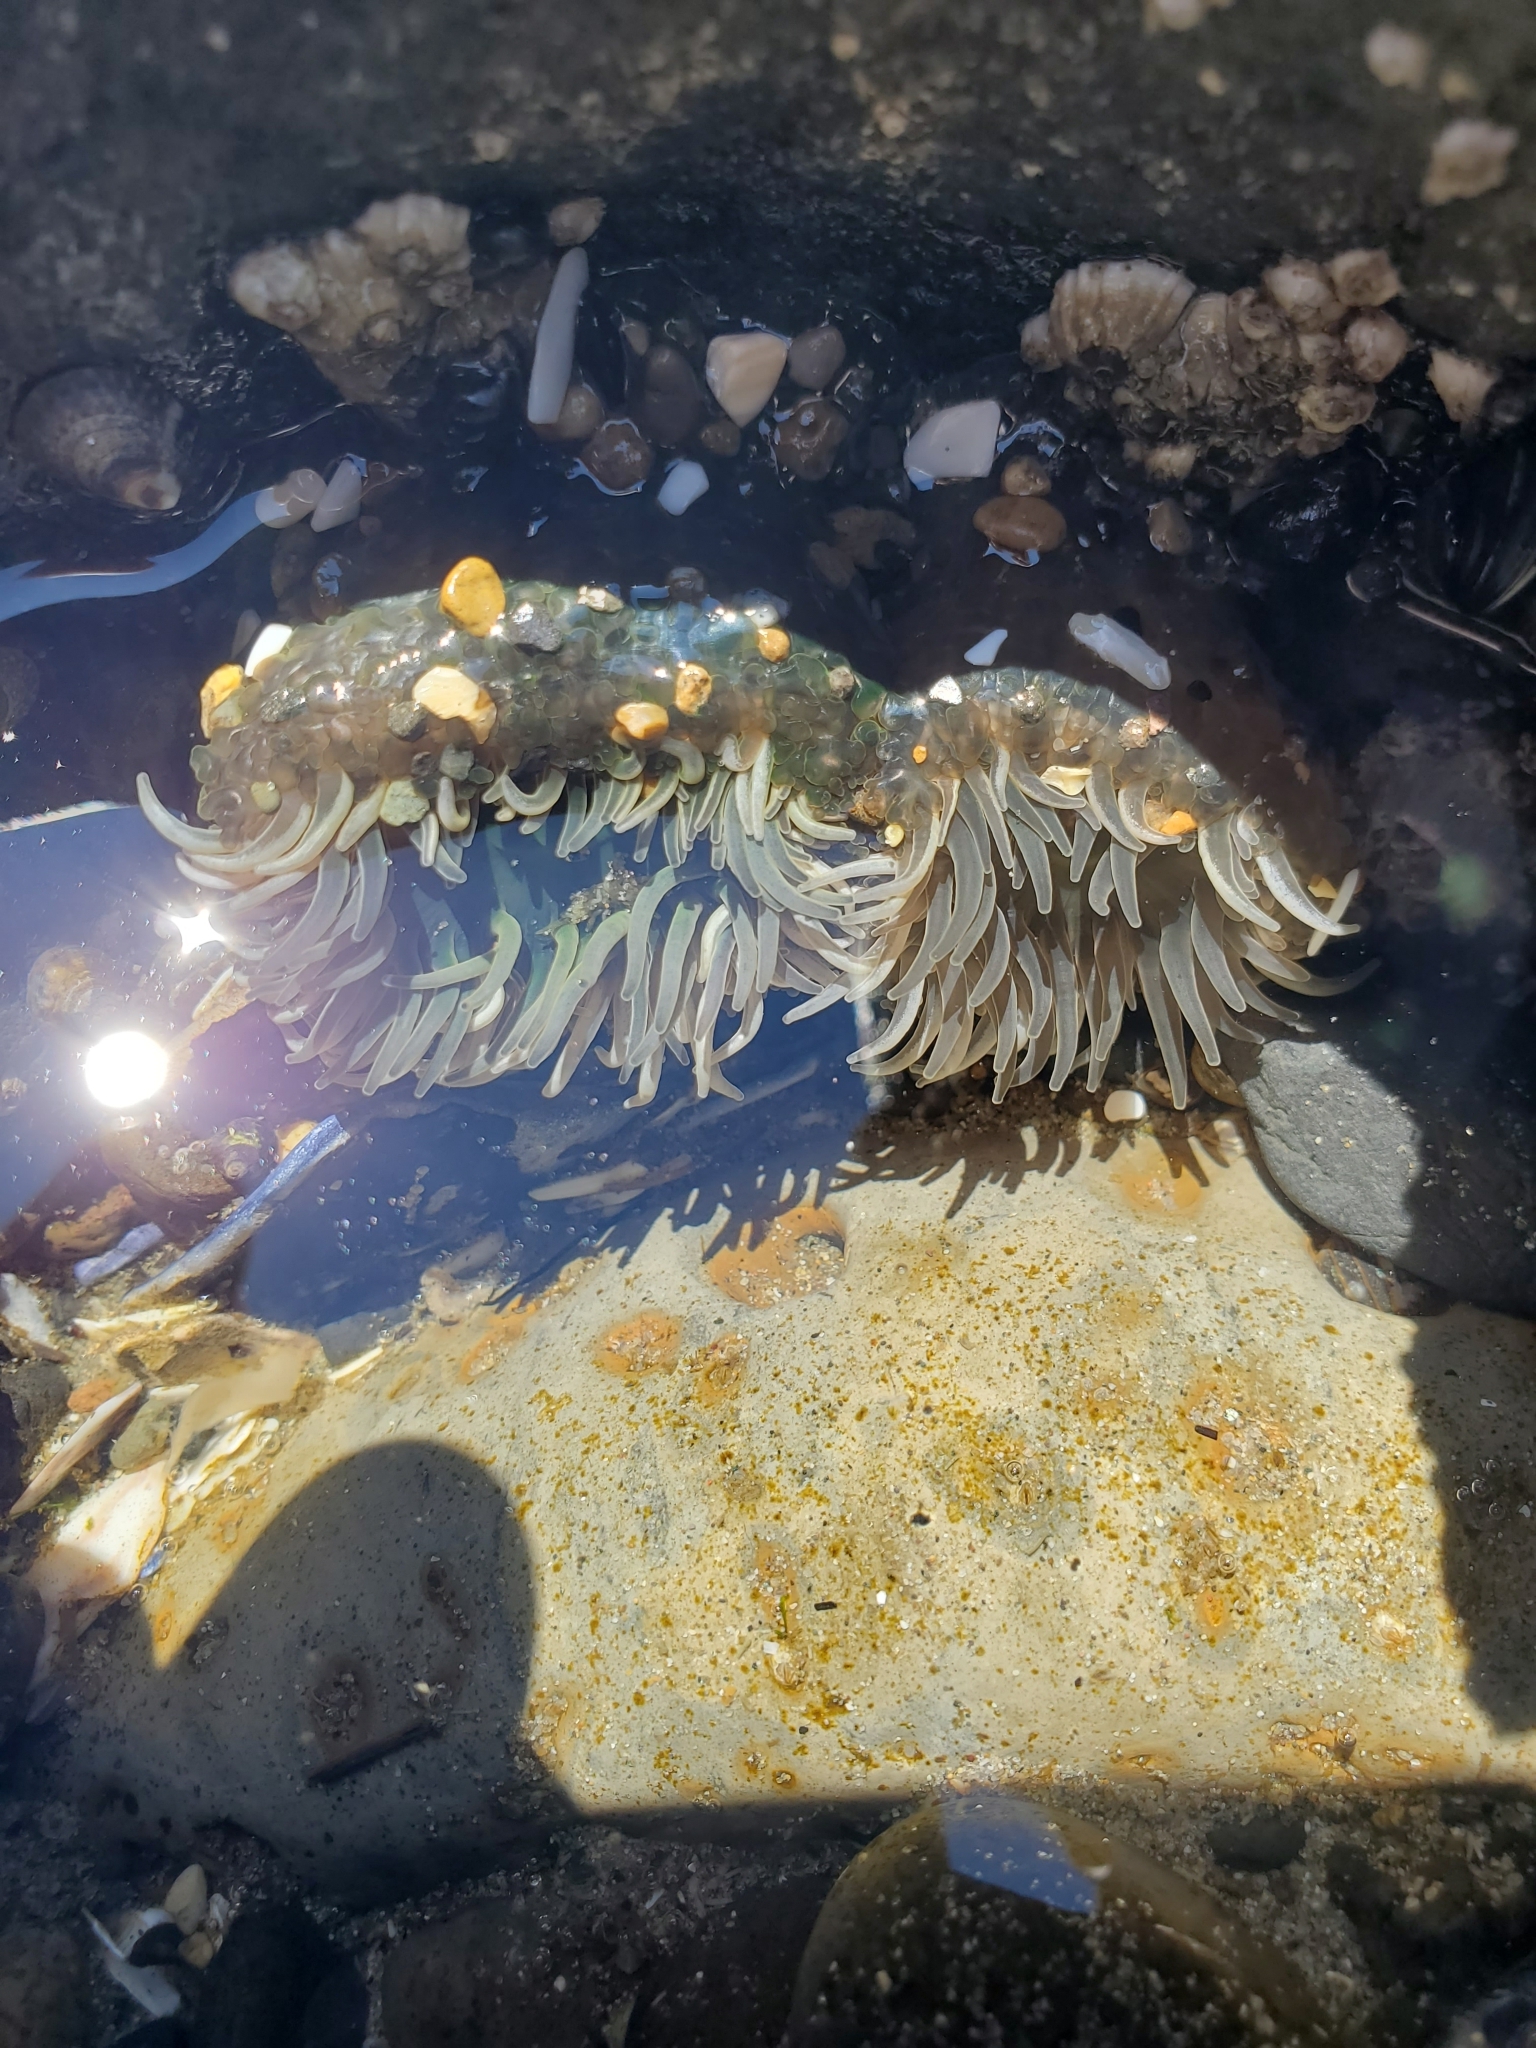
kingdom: Animalia
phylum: Cnidaria
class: Anthozoa
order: Actiniaria
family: Actiniidae
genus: Anthopleura
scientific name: Anthopleura xanthogrammica
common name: Giant green anemone
